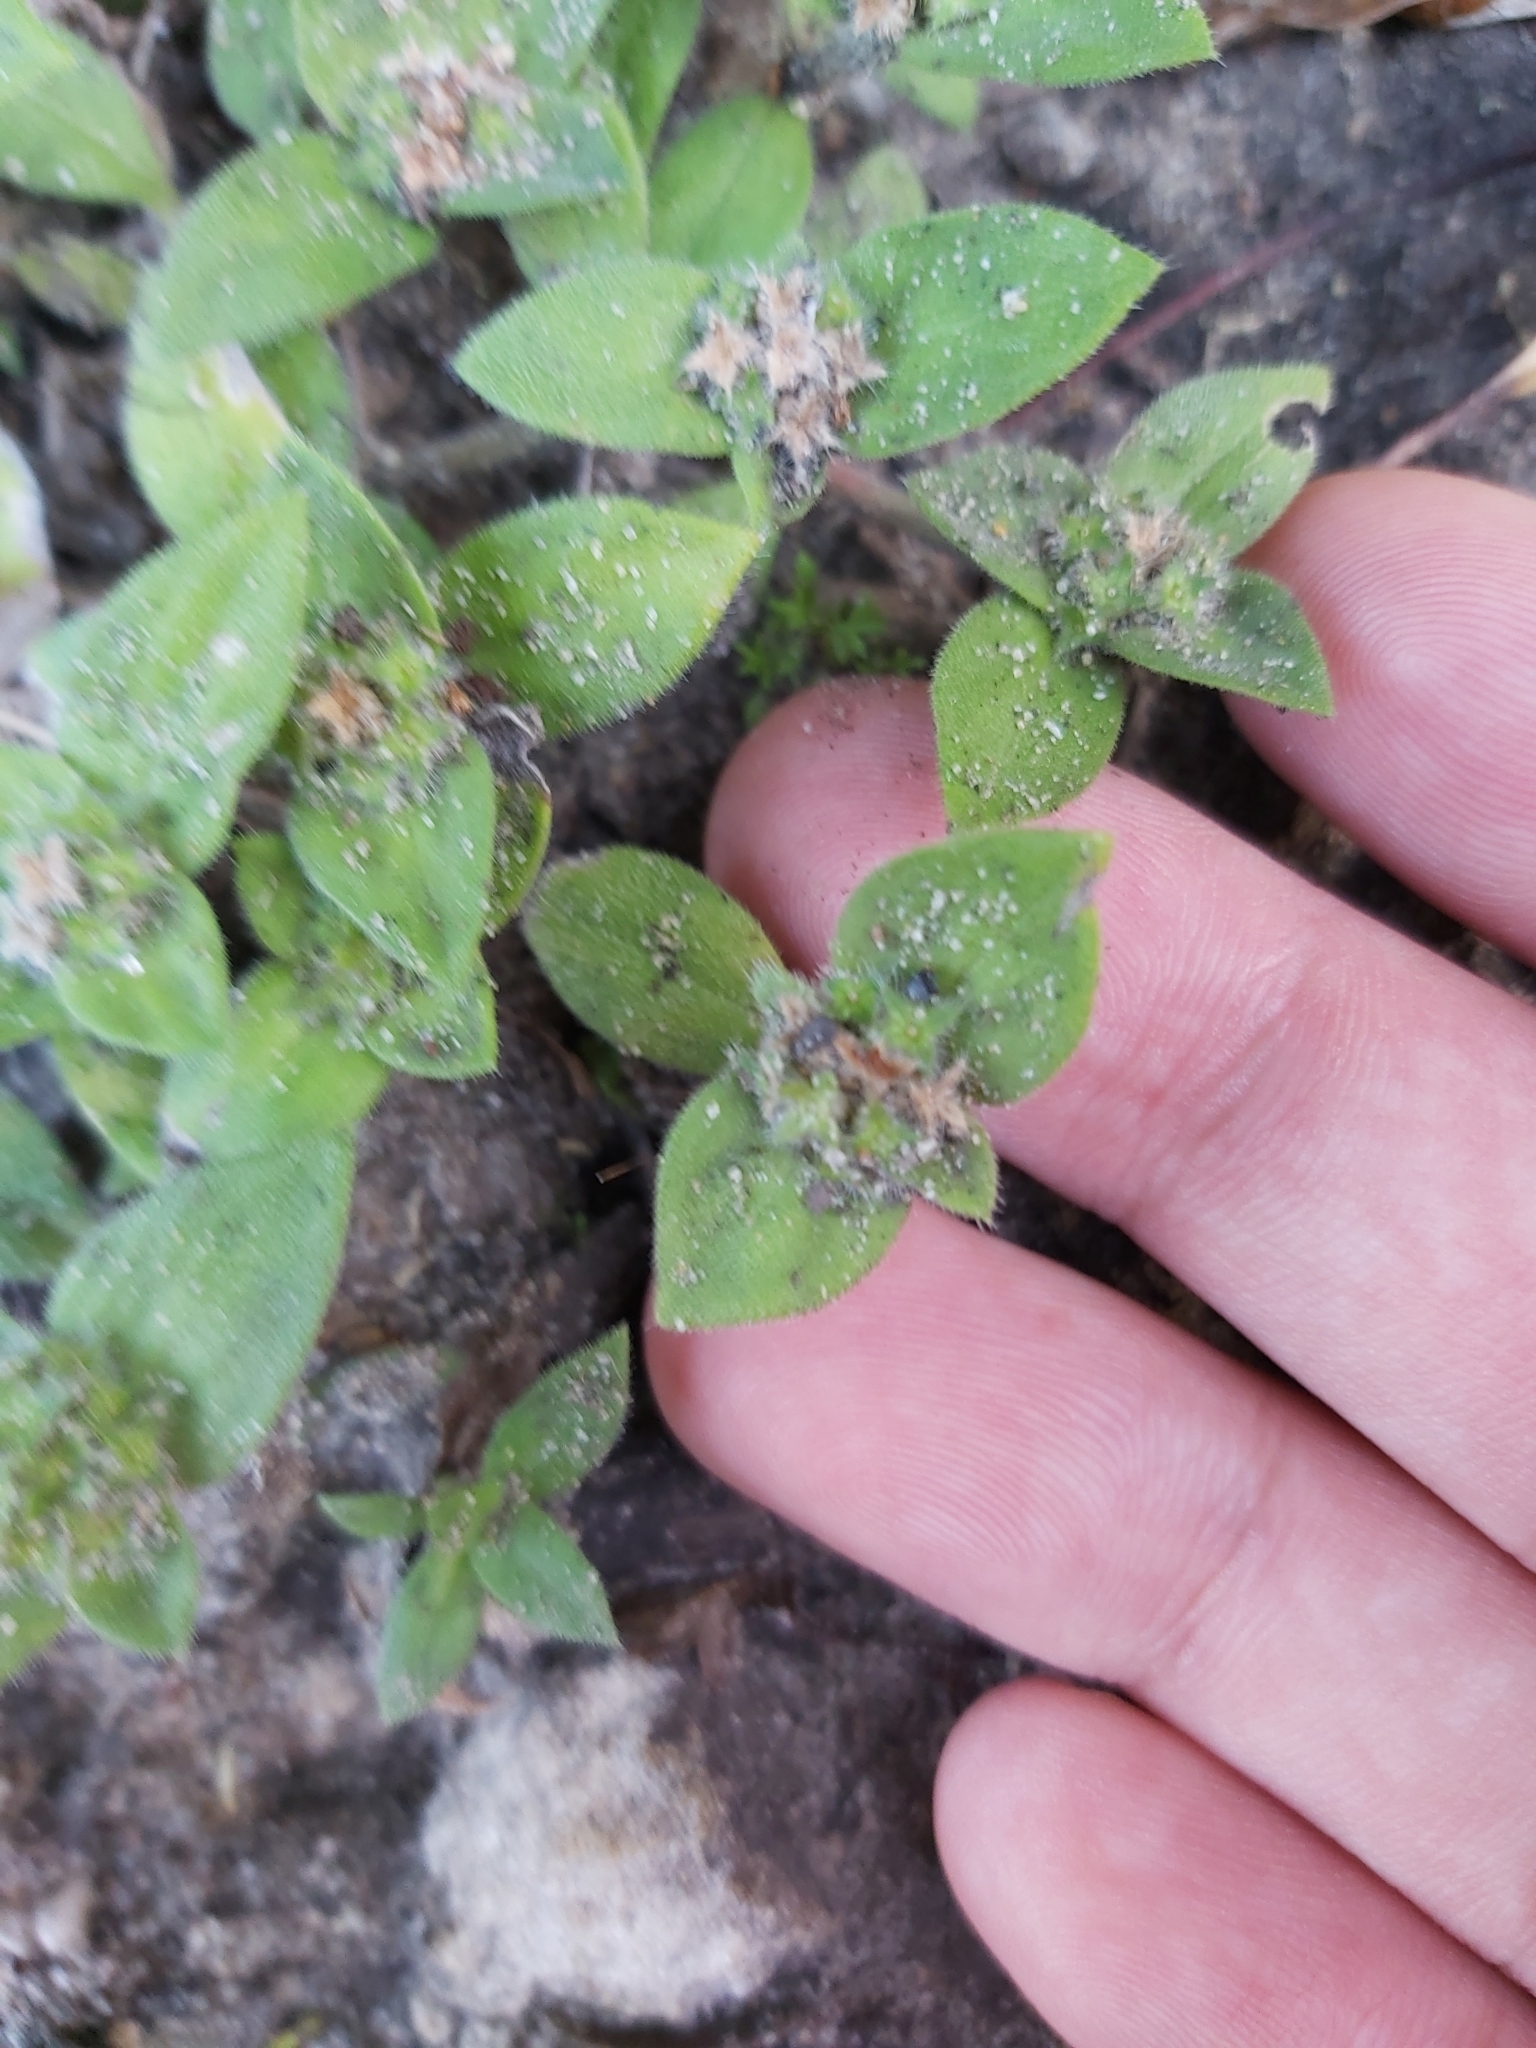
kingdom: Plantae
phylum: Tracheophyta
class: Magnoliopsida
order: Gentianales
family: Rubiaceae
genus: Richardia
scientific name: Richardia humistrata
